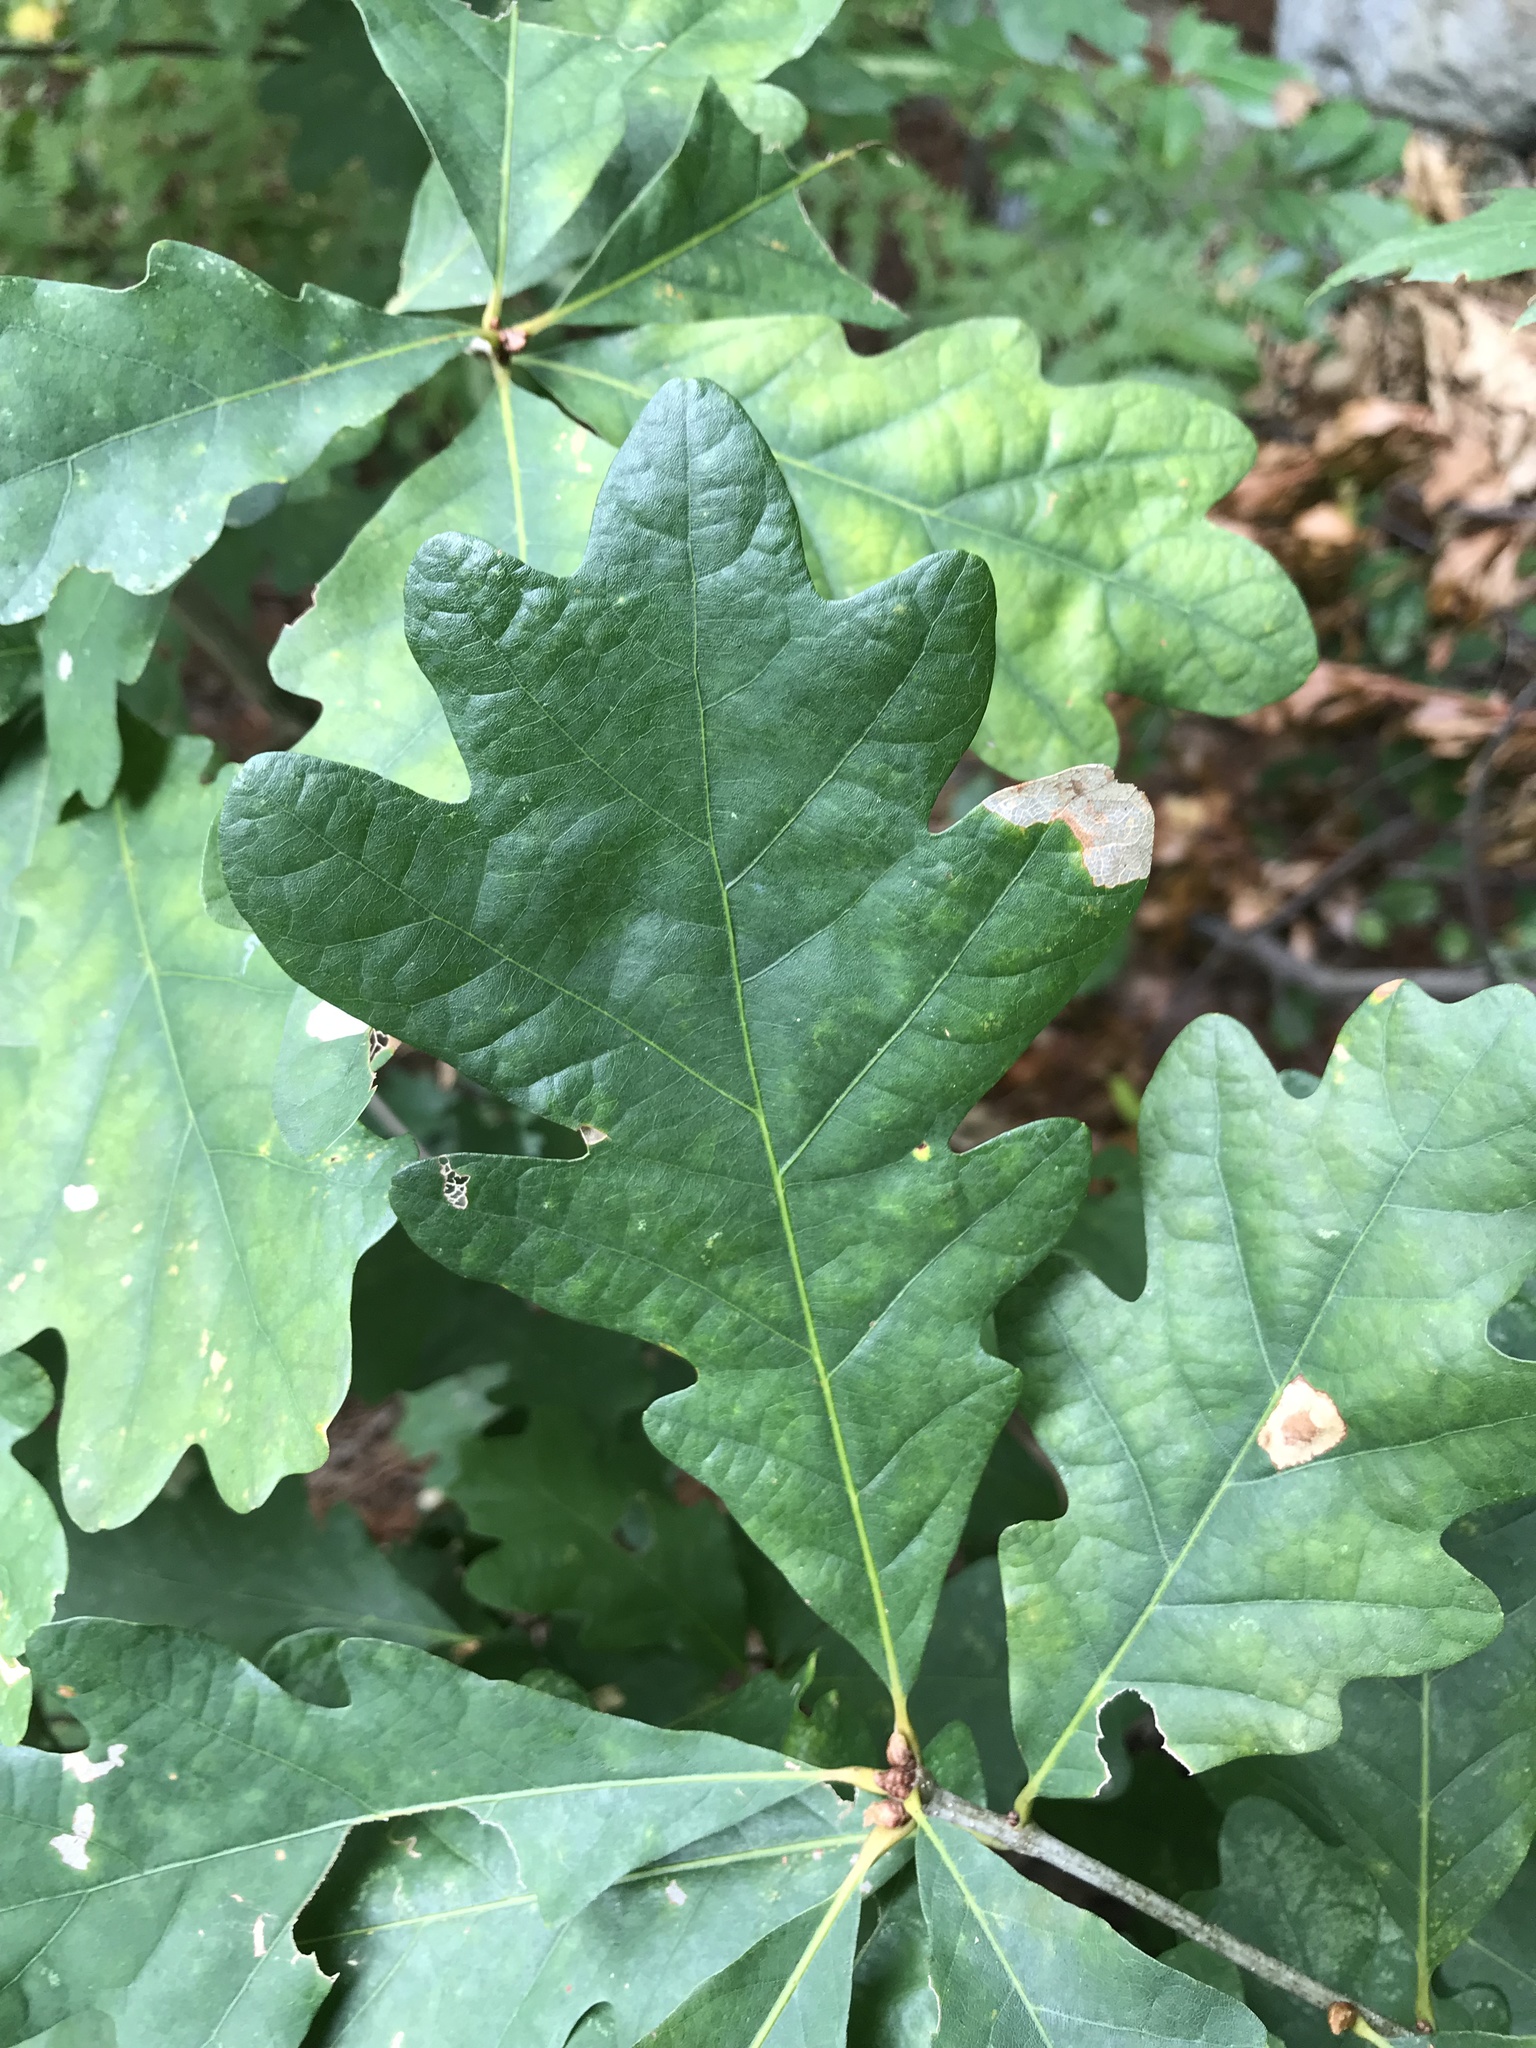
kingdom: Plantae
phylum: Tracheophyta
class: Magnoliopsida
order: Fagales
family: Fagaceae
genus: Quercus
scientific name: Quercus alba
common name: White oak
